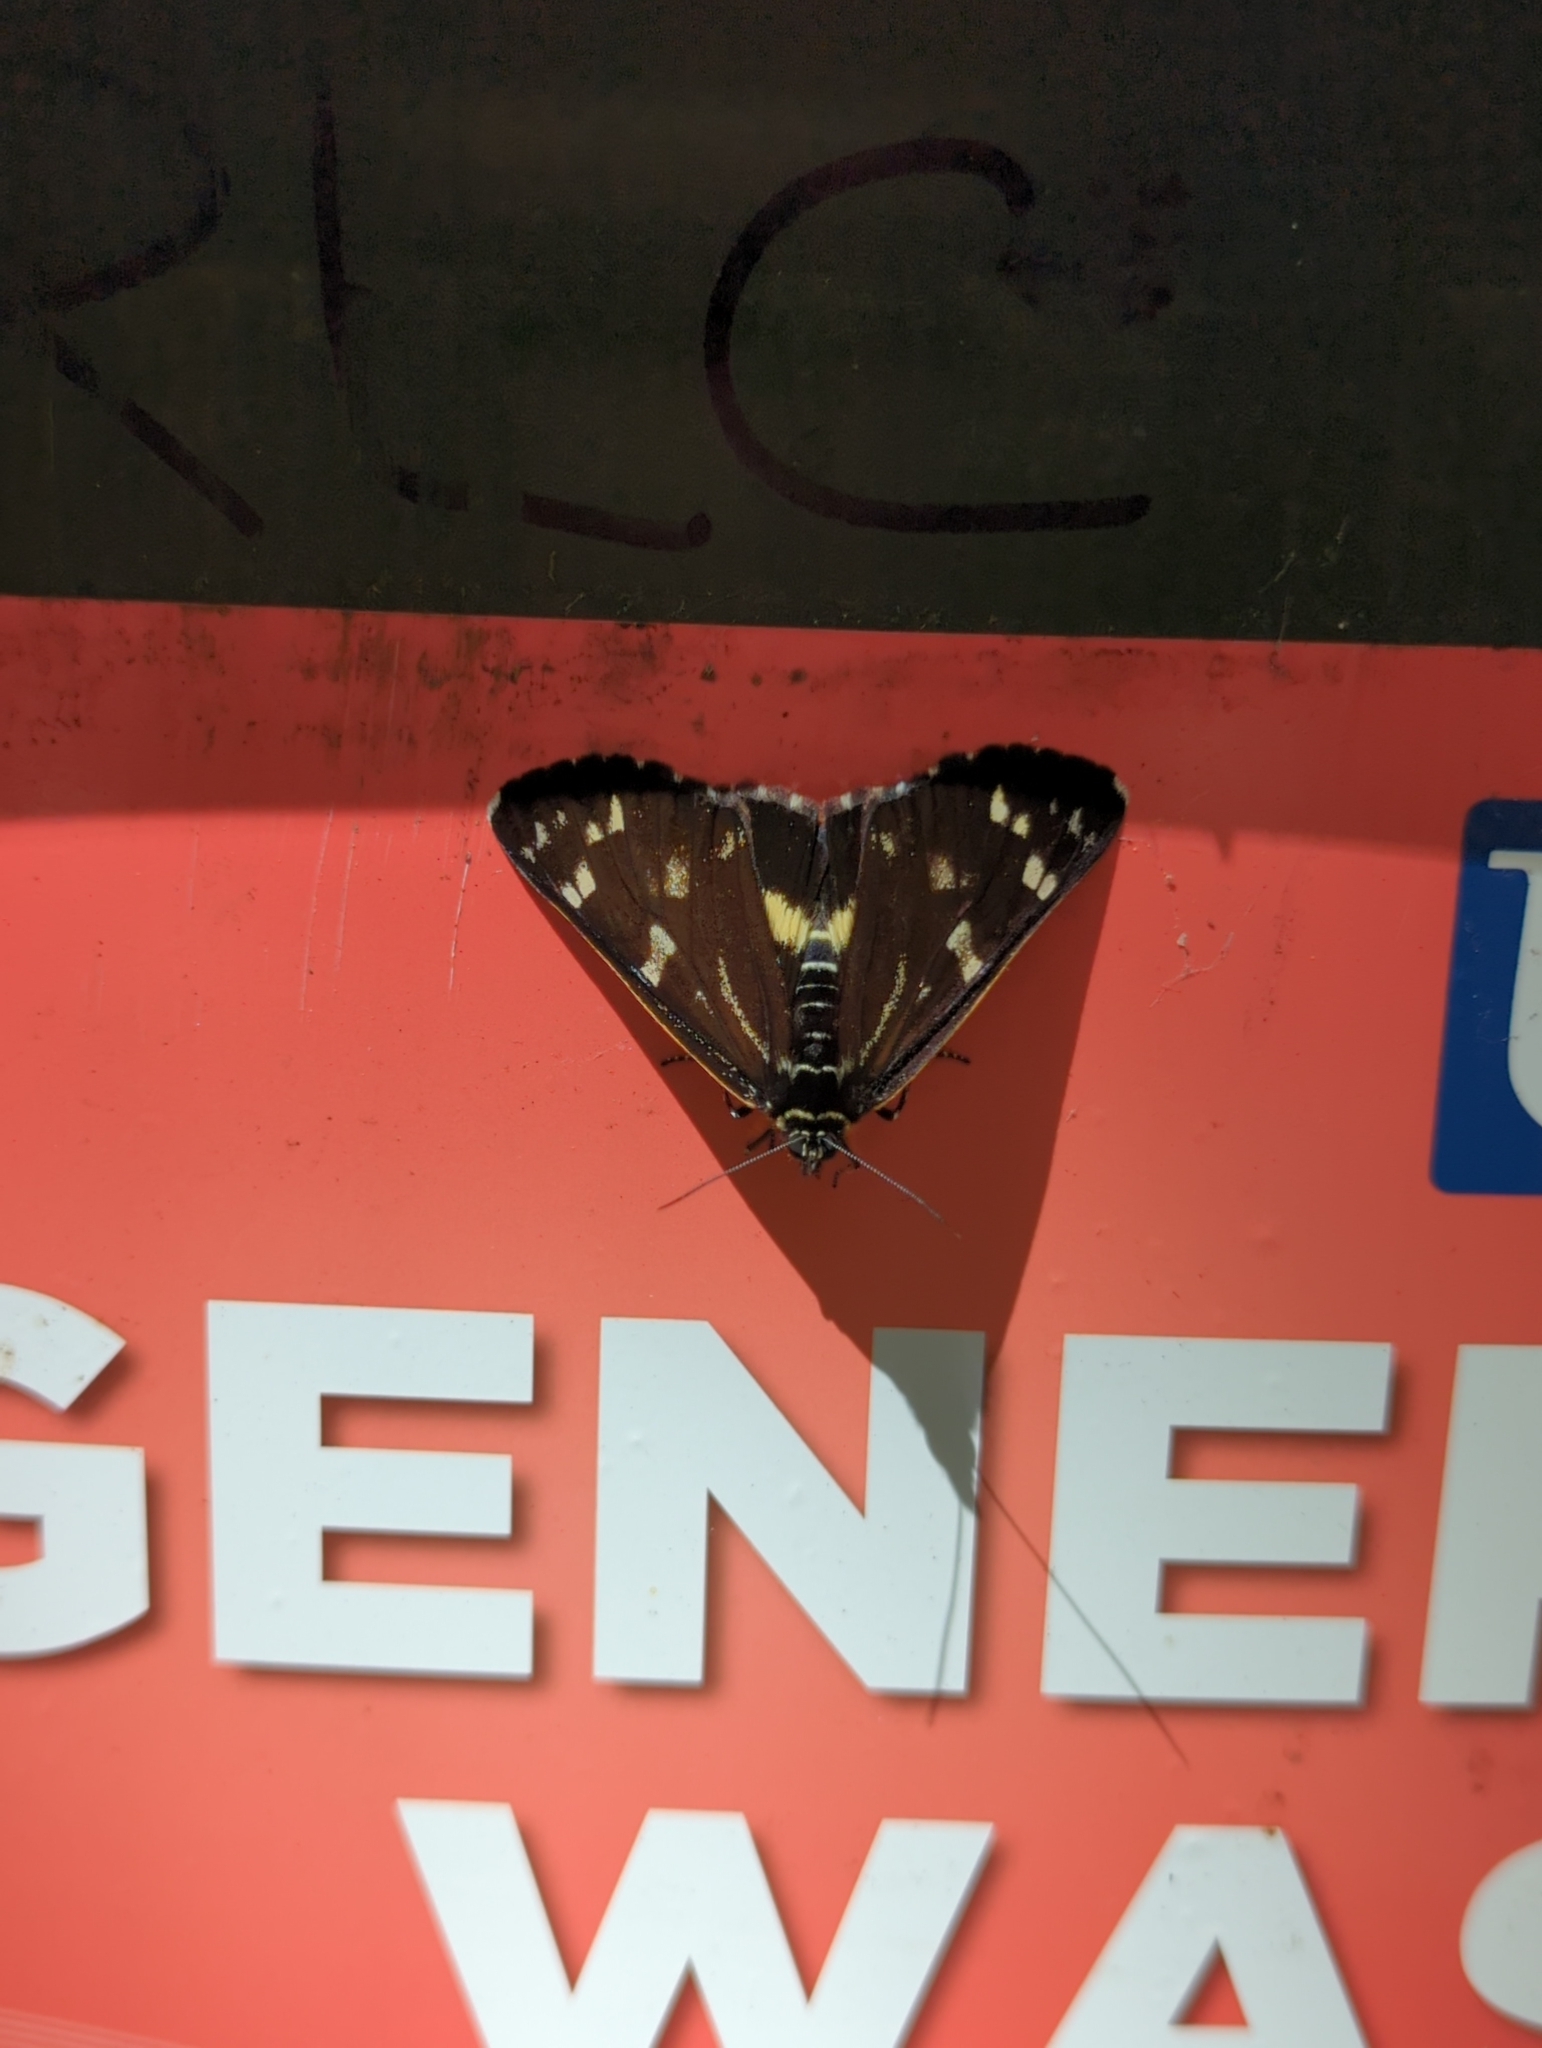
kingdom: Animalia
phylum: Arthropoda
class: Insecta
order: Lepidoptera
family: Noctuidae
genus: Cruria
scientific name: Cruria synopla
